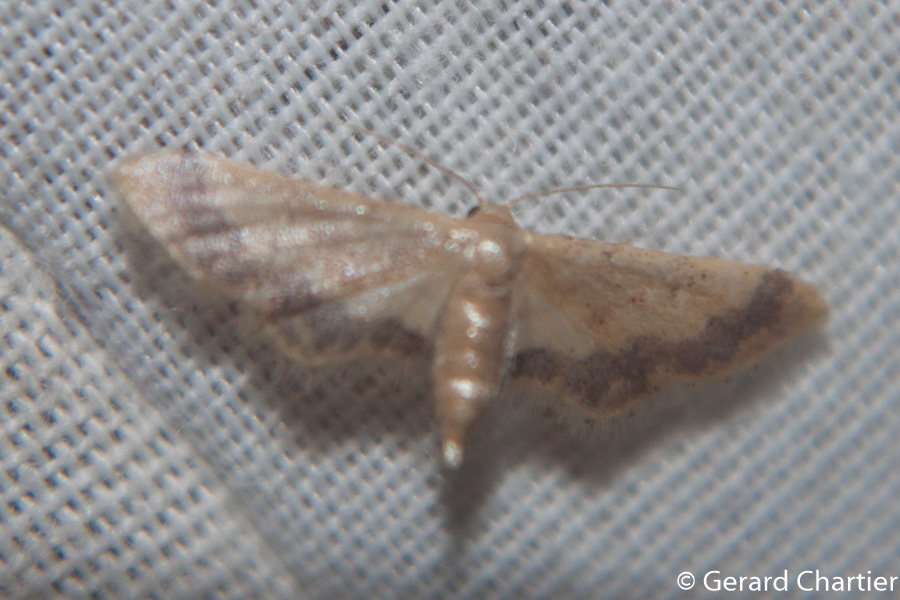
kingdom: Animalia
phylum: Arthropoda
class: Insecta
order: Lepidoptera
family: Geometridae
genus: Idaea
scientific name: Idaea violacea
